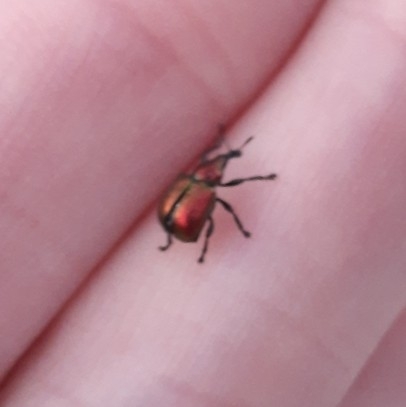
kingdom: Animalia
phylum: Arthropoda
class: Insecta
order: Coleoptera
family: Attelabidae
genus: Byctiscus
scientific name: Byctiscus populi
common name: Leaf-rolling weevil
